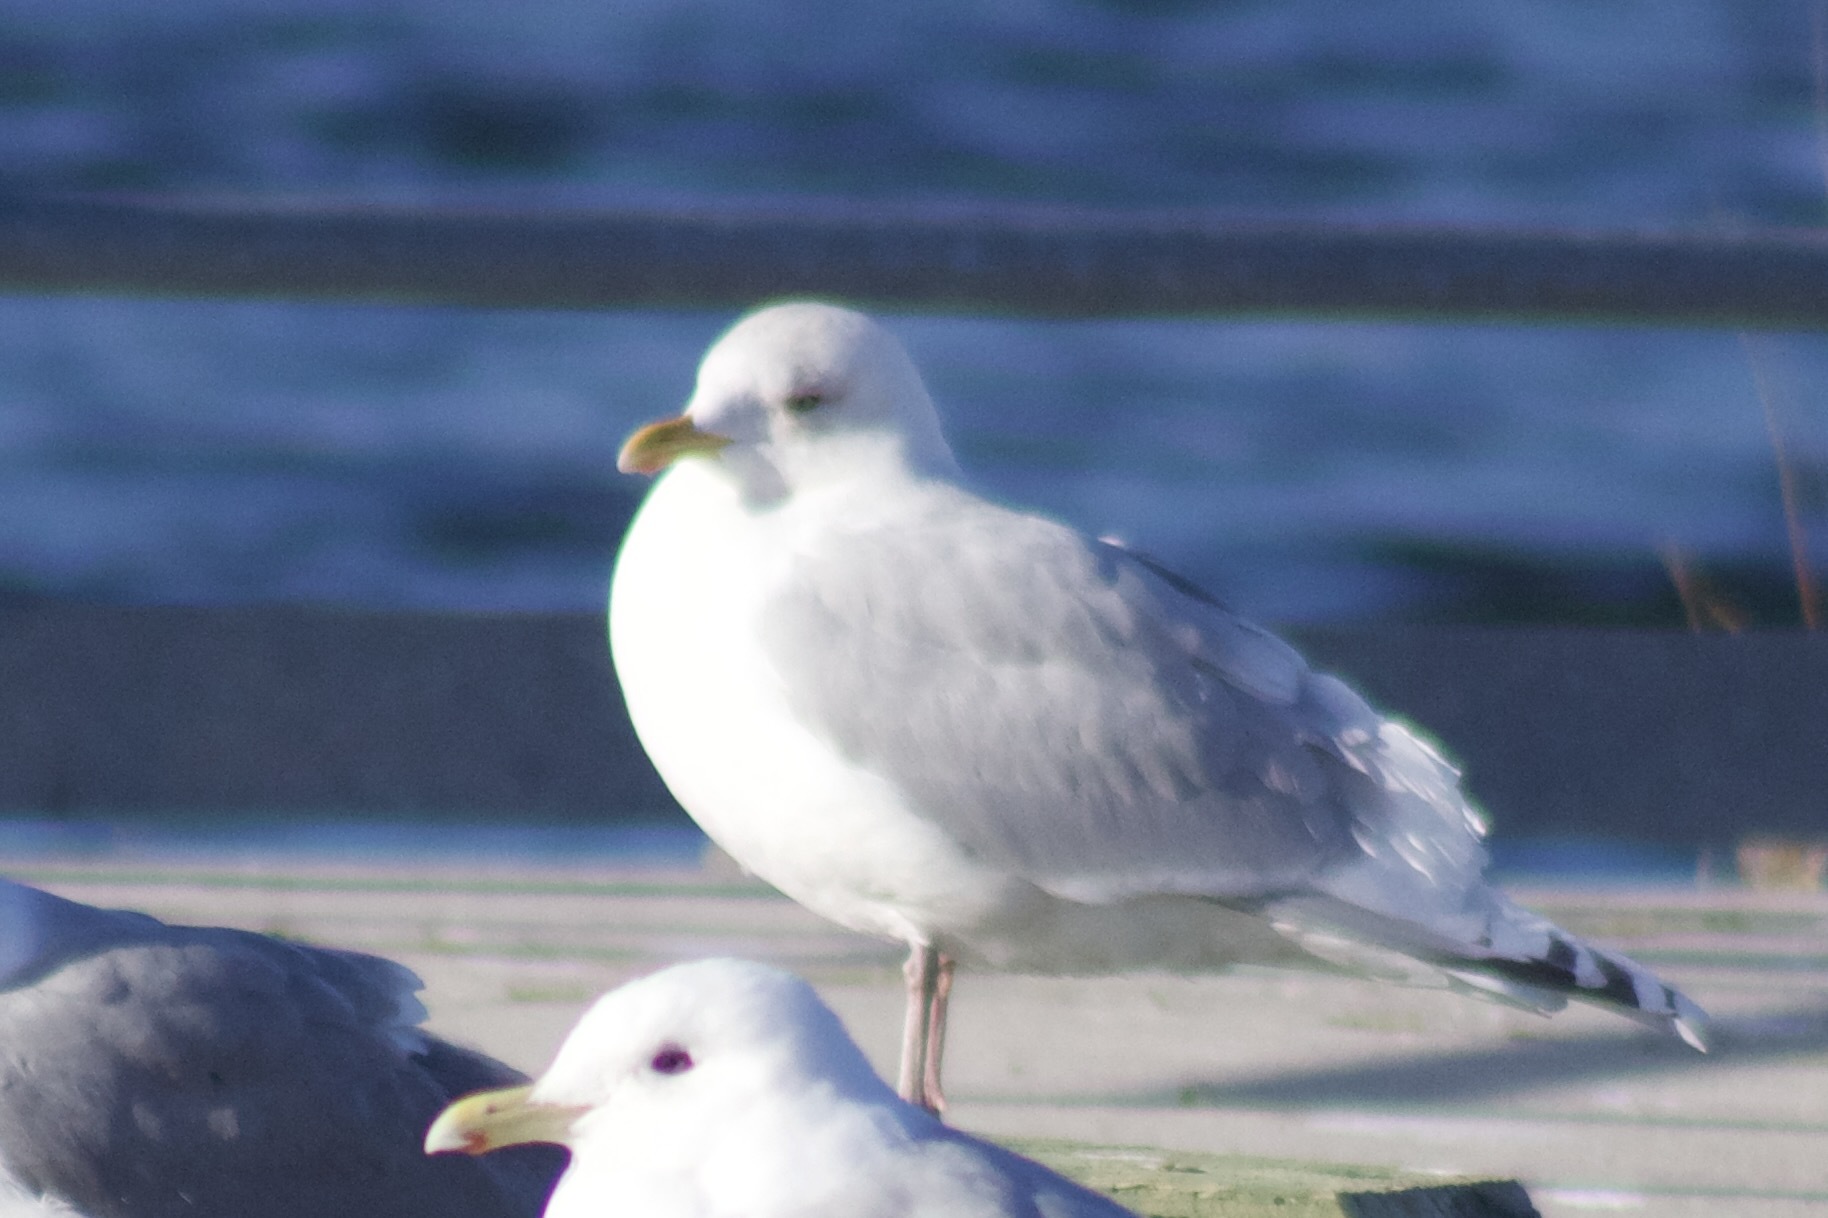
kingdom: Animalia
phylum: Chordata
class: Aves
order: Charadriiformes
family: Laridae
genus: Larus
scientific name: Larus argentatus
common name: Herring gull
